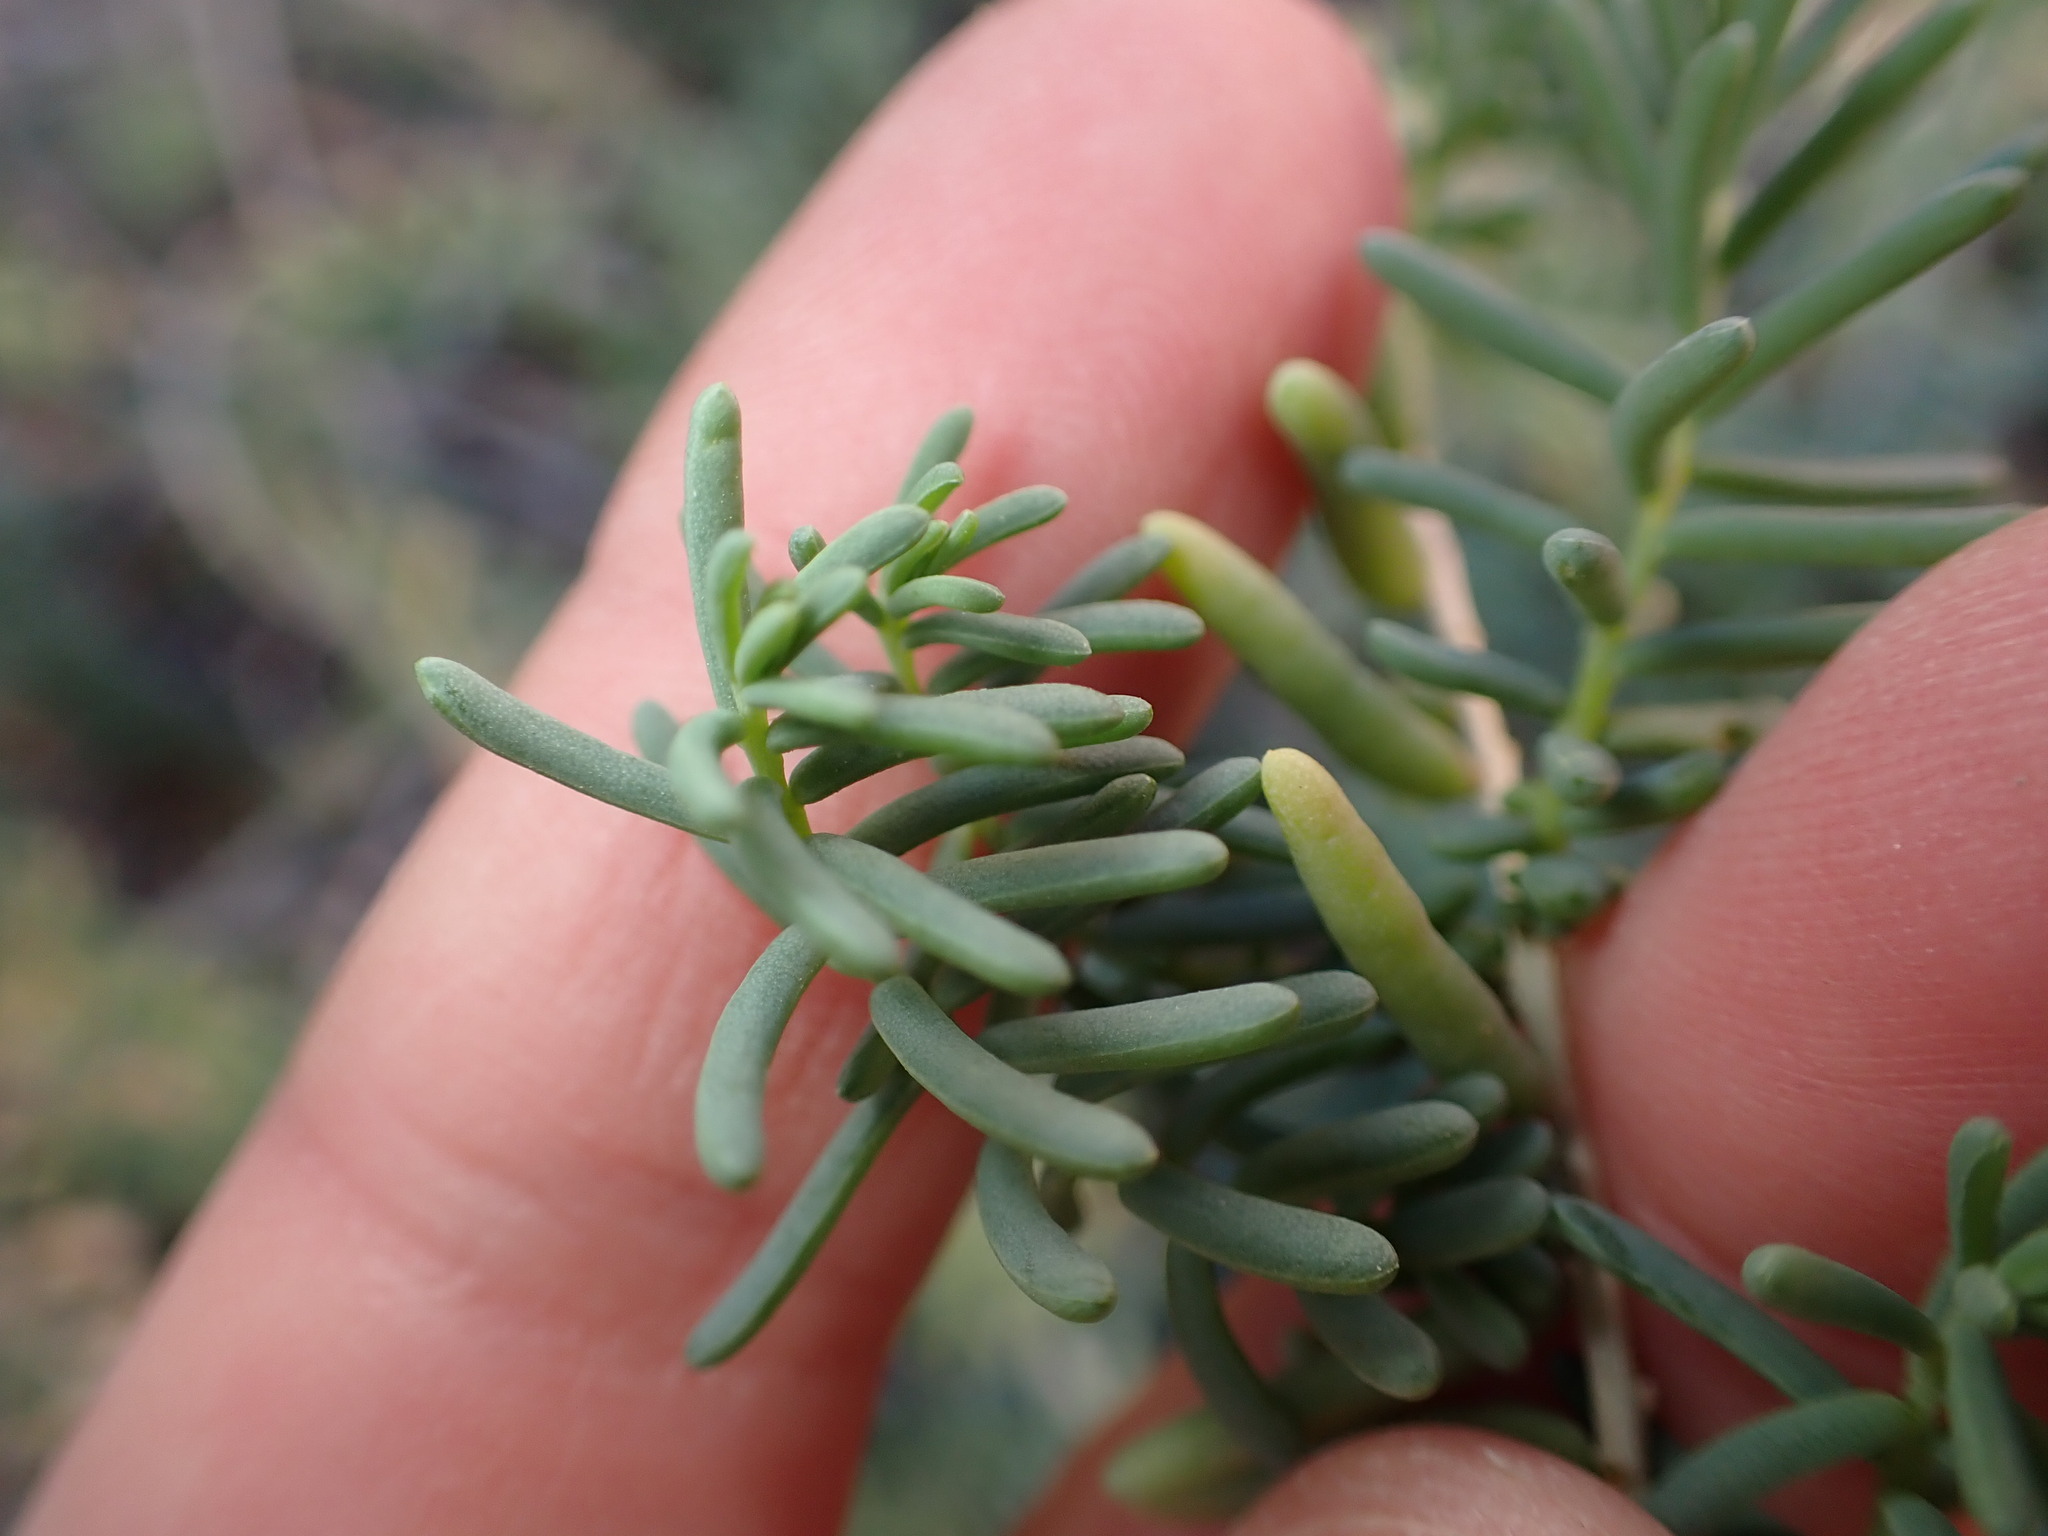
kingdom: Plantae
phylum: Tracheophyta
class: Magnoliopsida
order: Caryophyllales
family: Amaranthaceae
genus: Suaeda
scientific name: Suaeda vera
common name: Shrubby sea-blite
